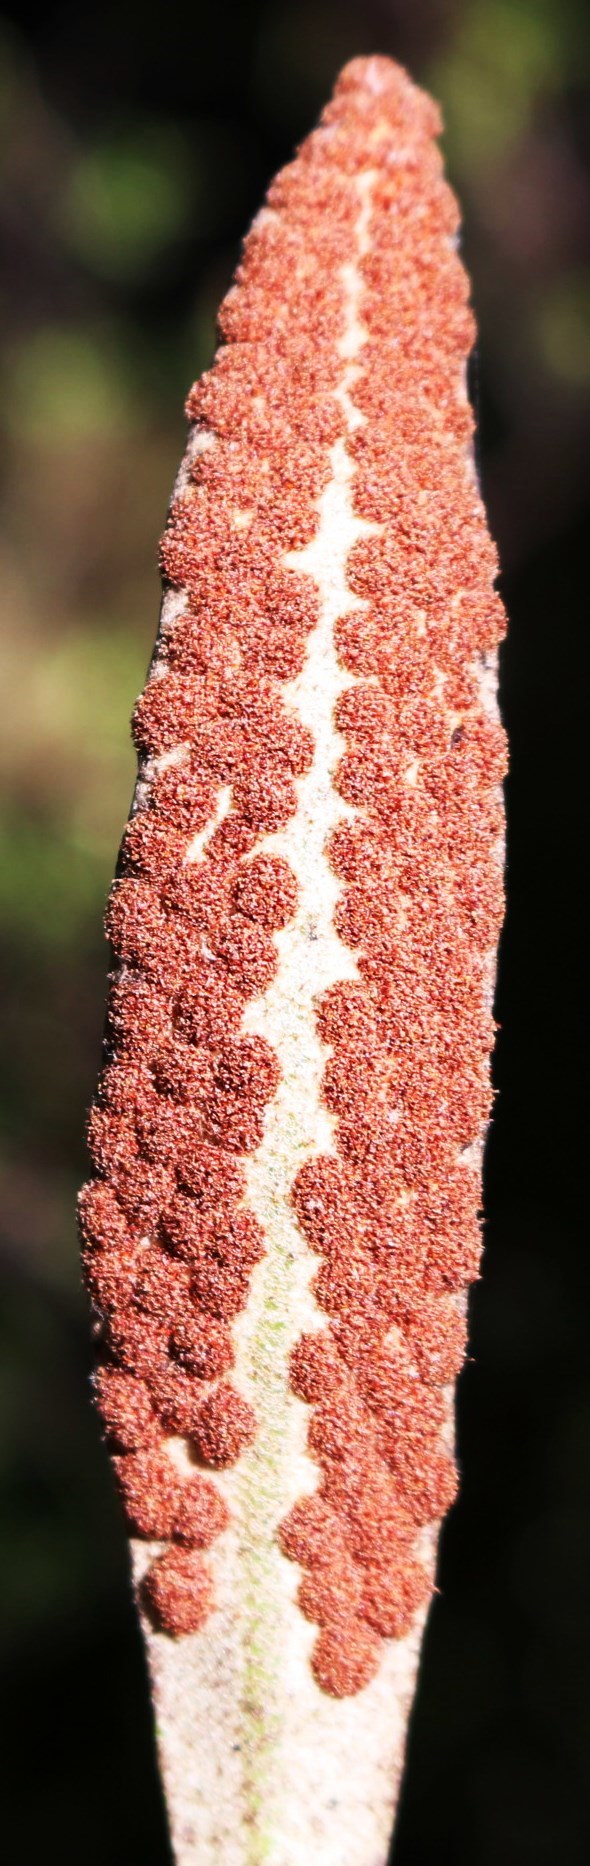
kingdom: Plantae
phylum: Tracheophyta
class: Polypodiopsida
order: Polypodiales
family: Polypodiaceae
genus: Pyrrosia
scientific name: Pyrrosia eleagnifolia
